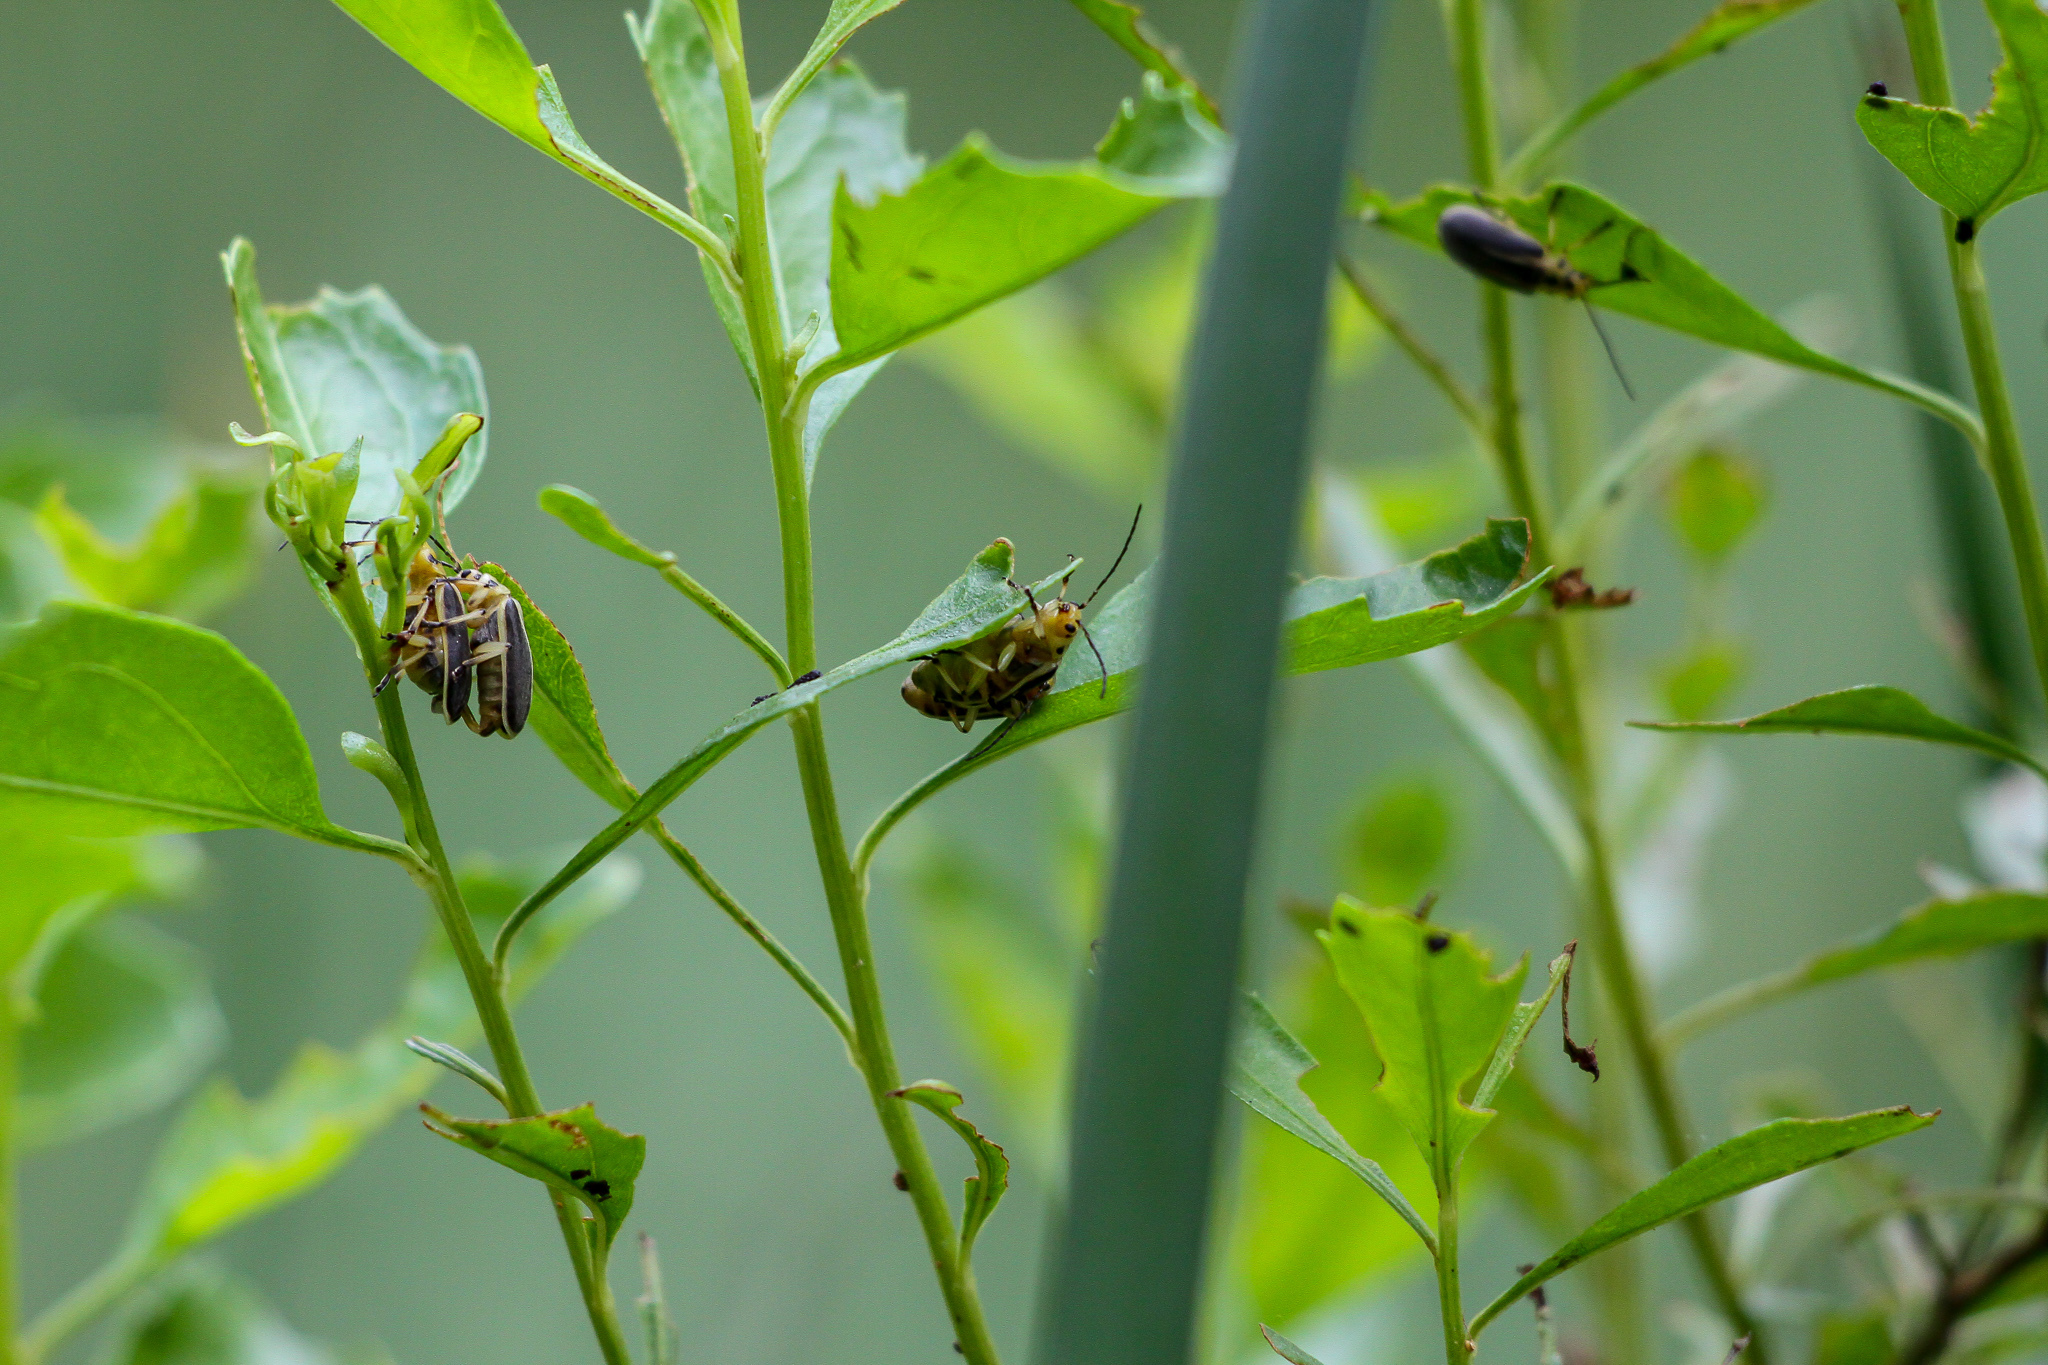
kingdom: Animalia
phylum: Arthropoda
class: Insecta
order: Coleoptera
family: Chrysomelidae
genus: Trirhabda
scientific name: Trirhabda bacharidis
